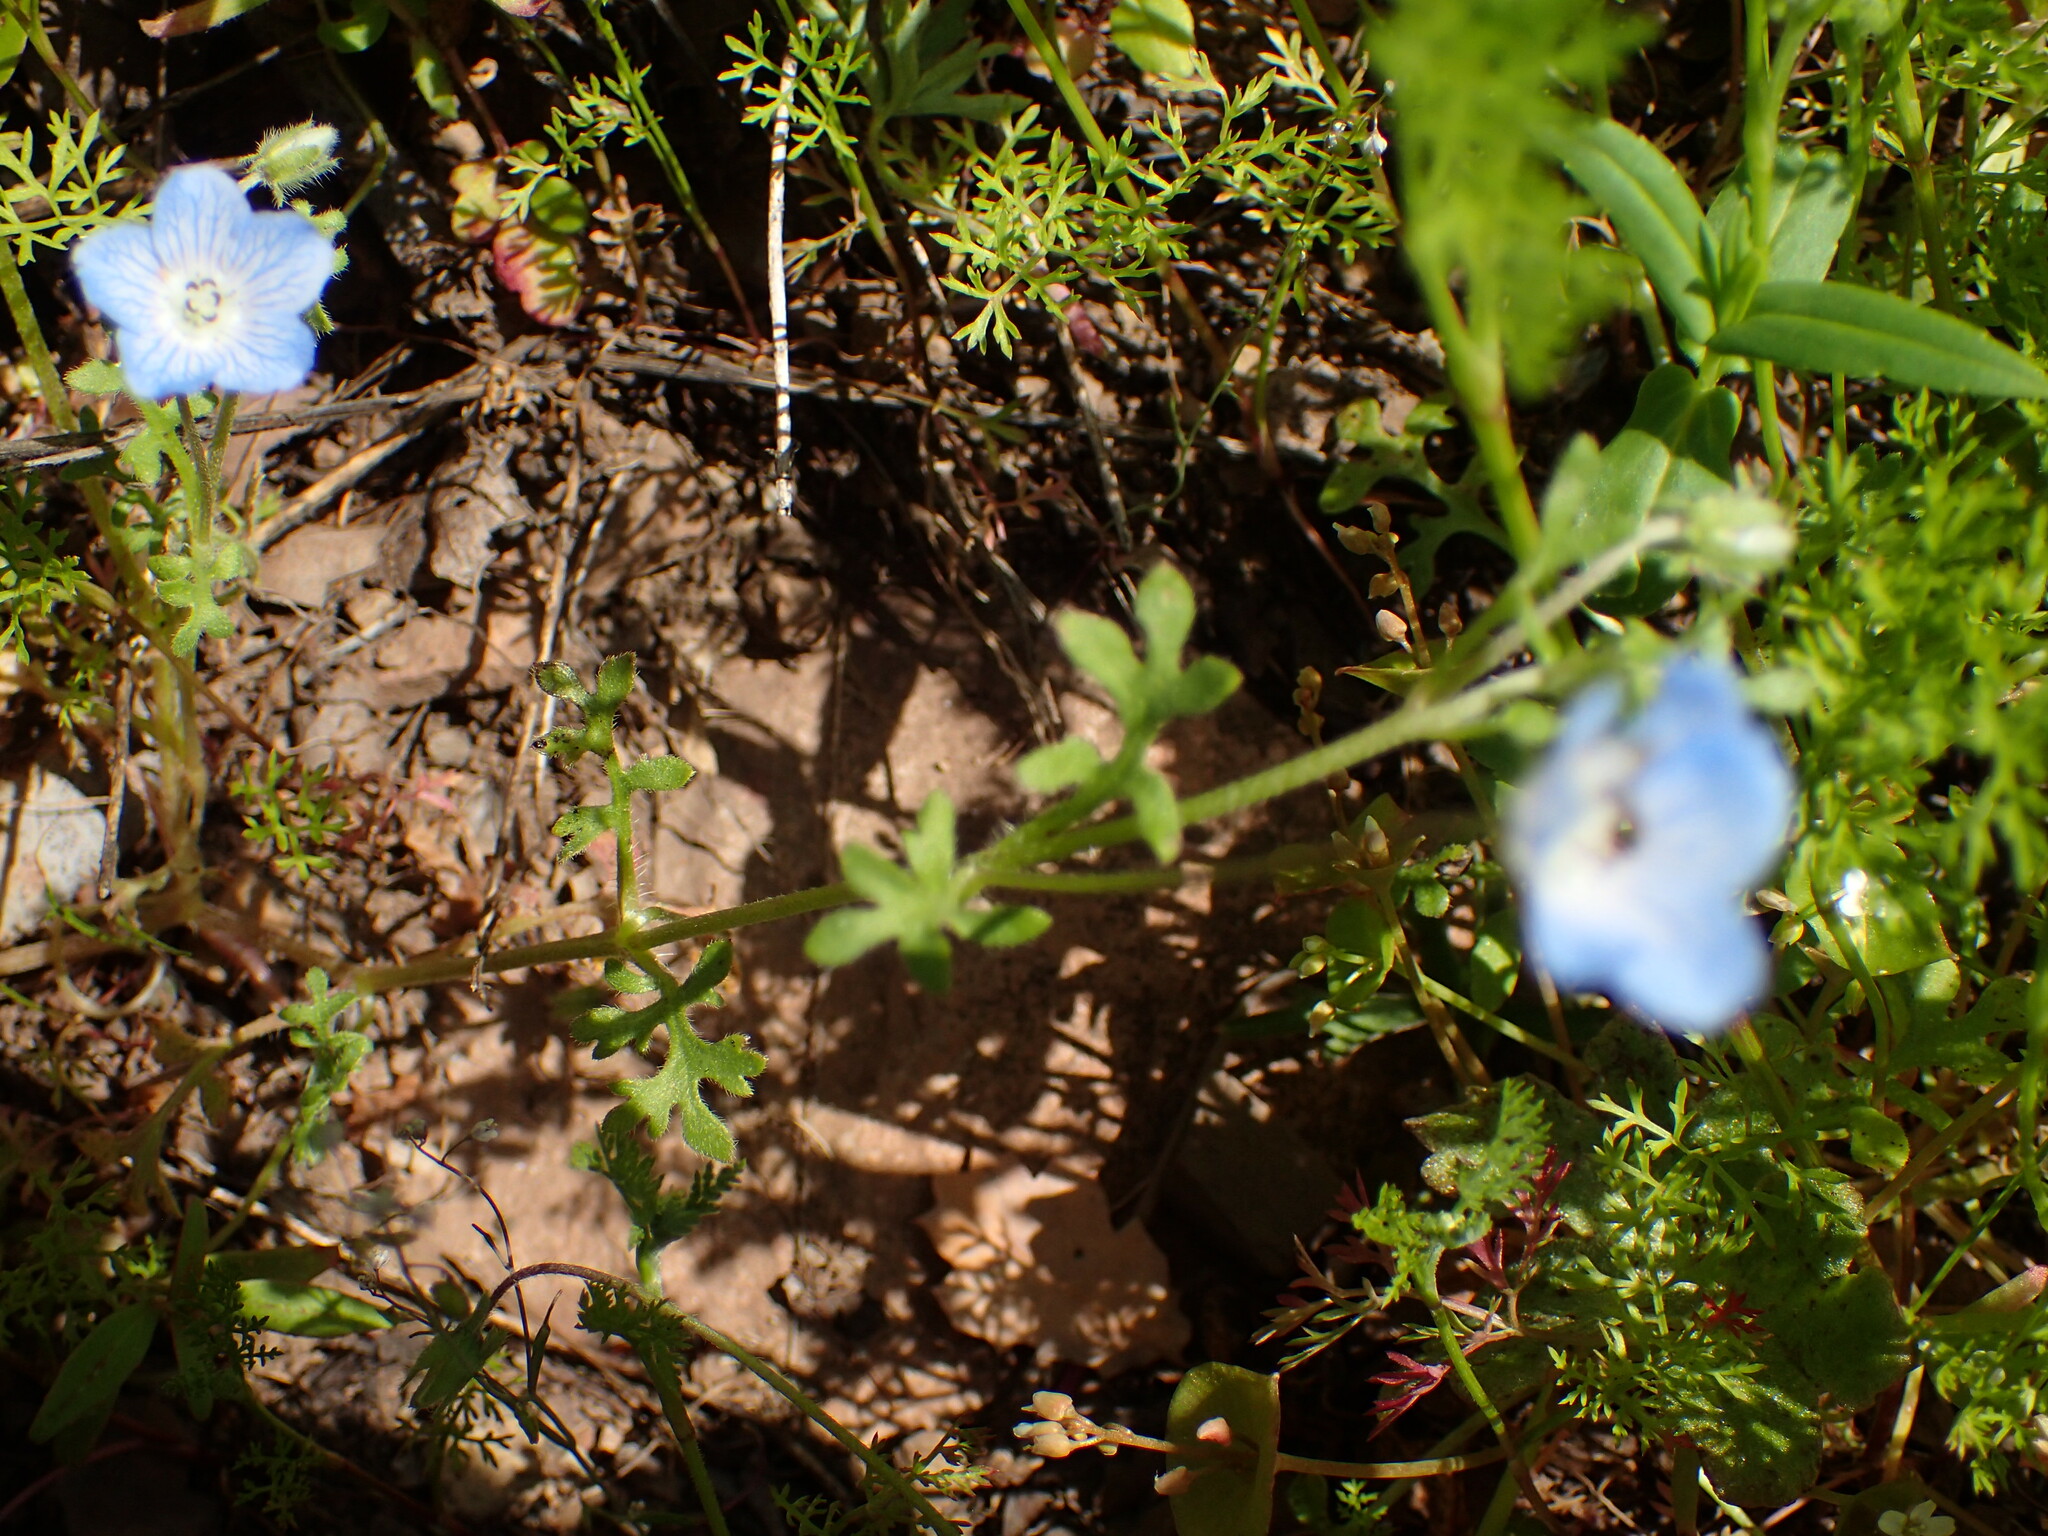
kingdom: Plantae
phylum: Tracheophyta
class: Magnoliopsida
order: Boraginales
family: Hydrophyllaceae
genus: Nemophila
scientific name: Nemophila menziesii
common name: Baby's-blue-eyes
